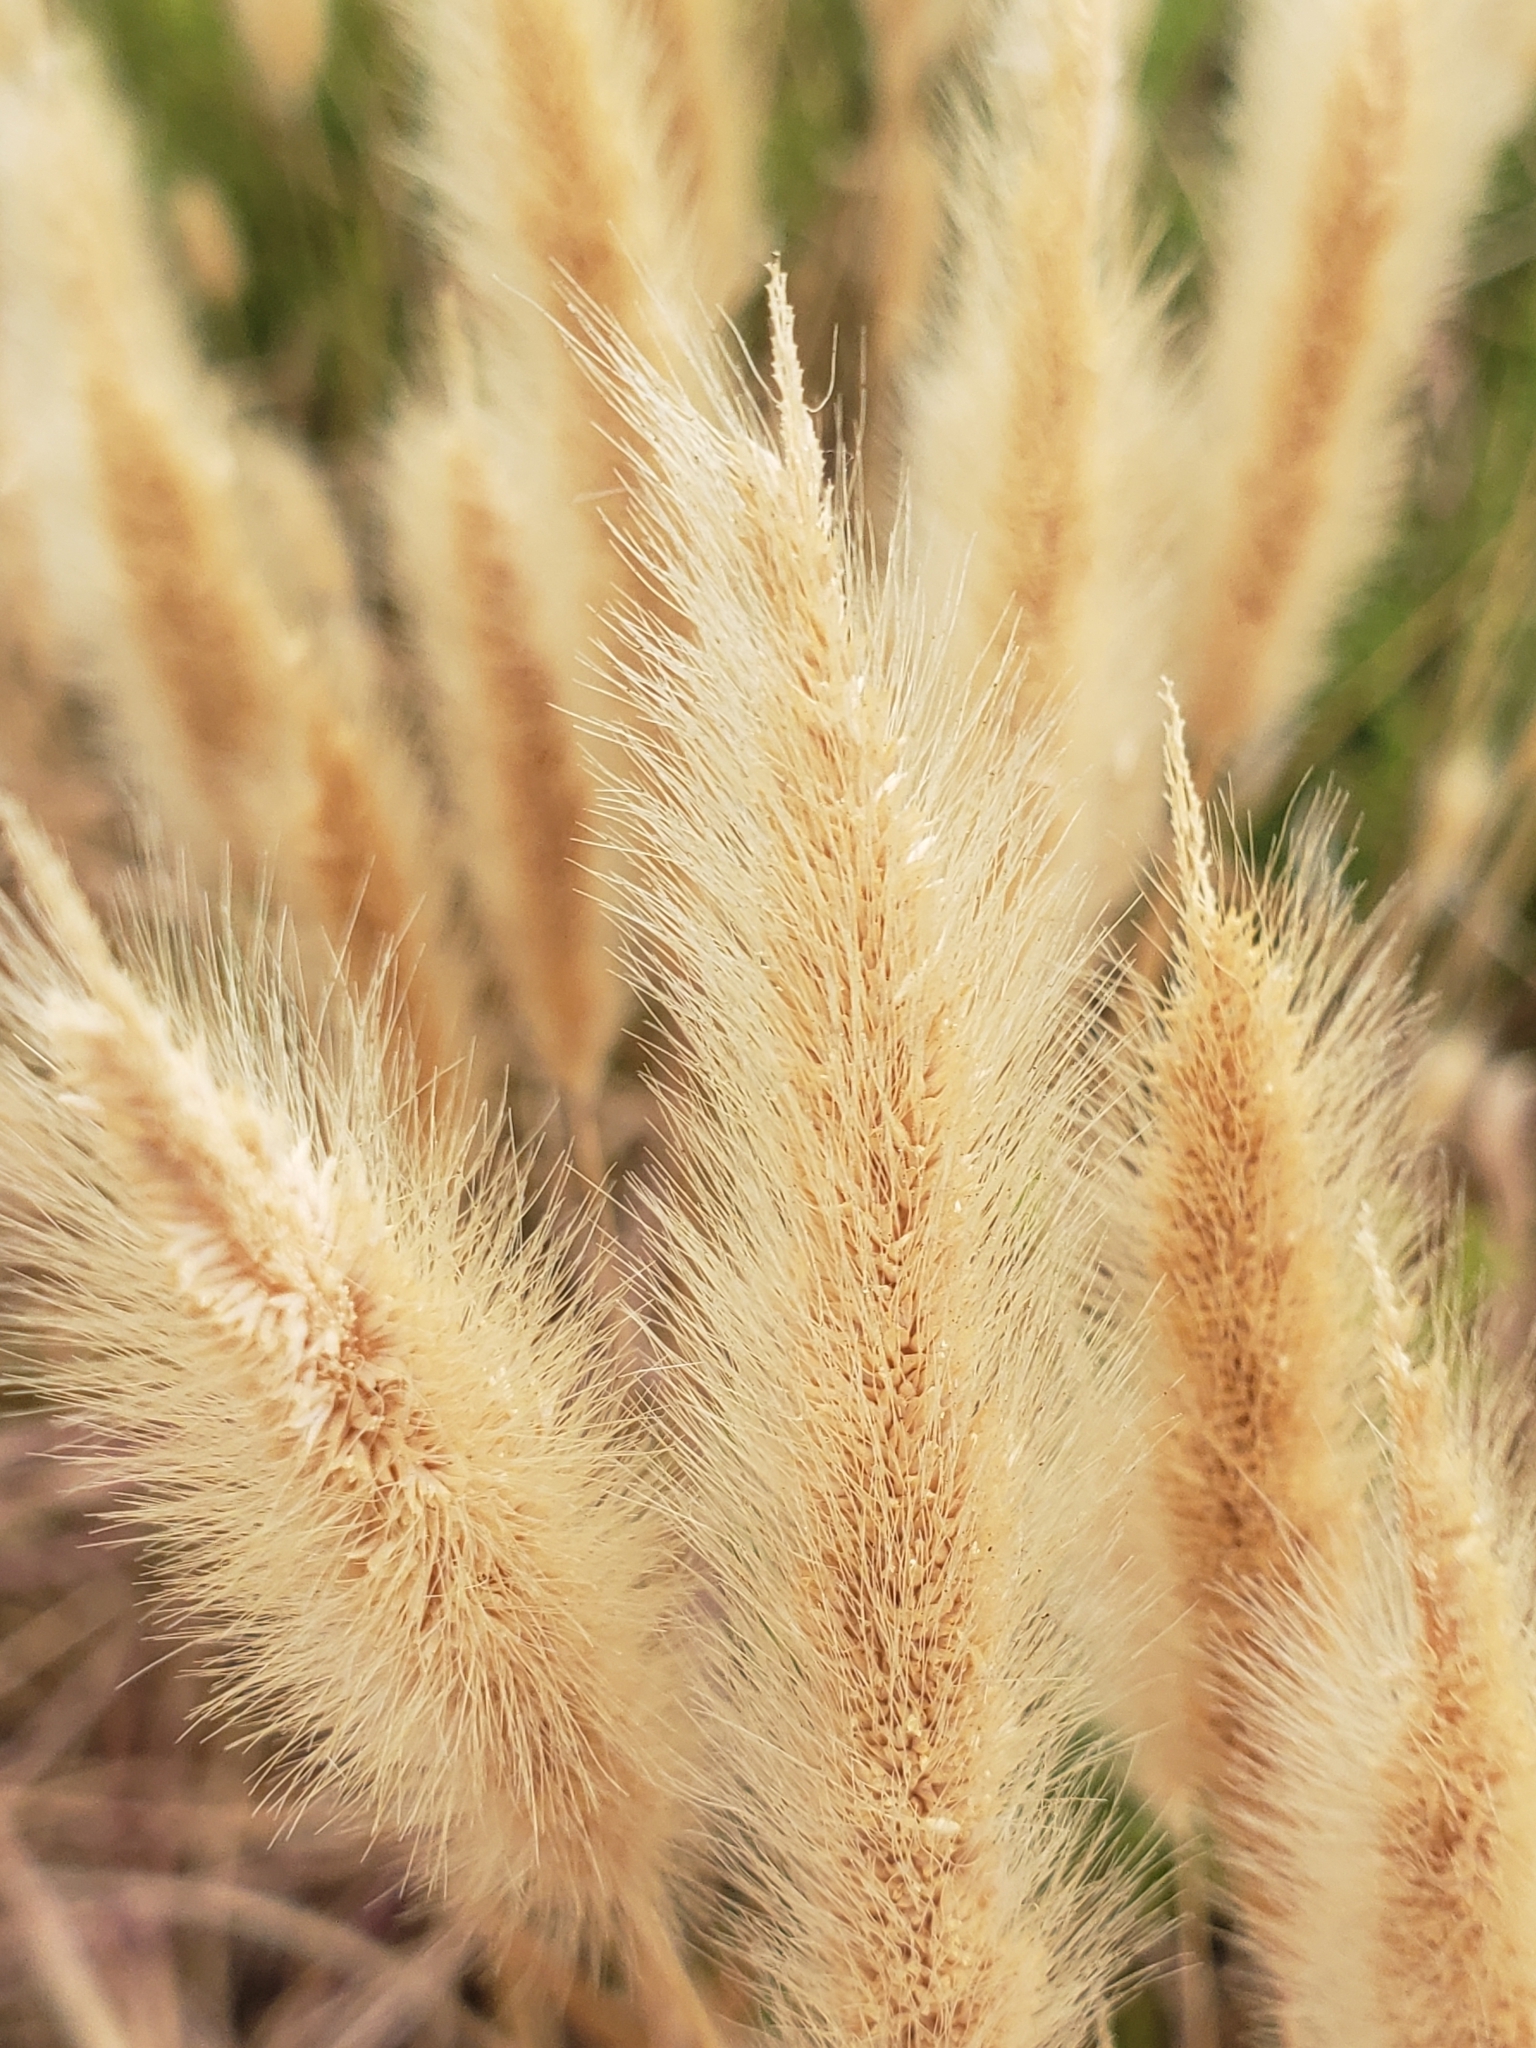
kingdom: Plantae
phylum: Tracheophyta
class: Liliopsida
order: Poales
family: Poaceae
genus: Polypogon
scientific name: Polypogon monspeliensis
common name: Annual rabbitsfoot grass
